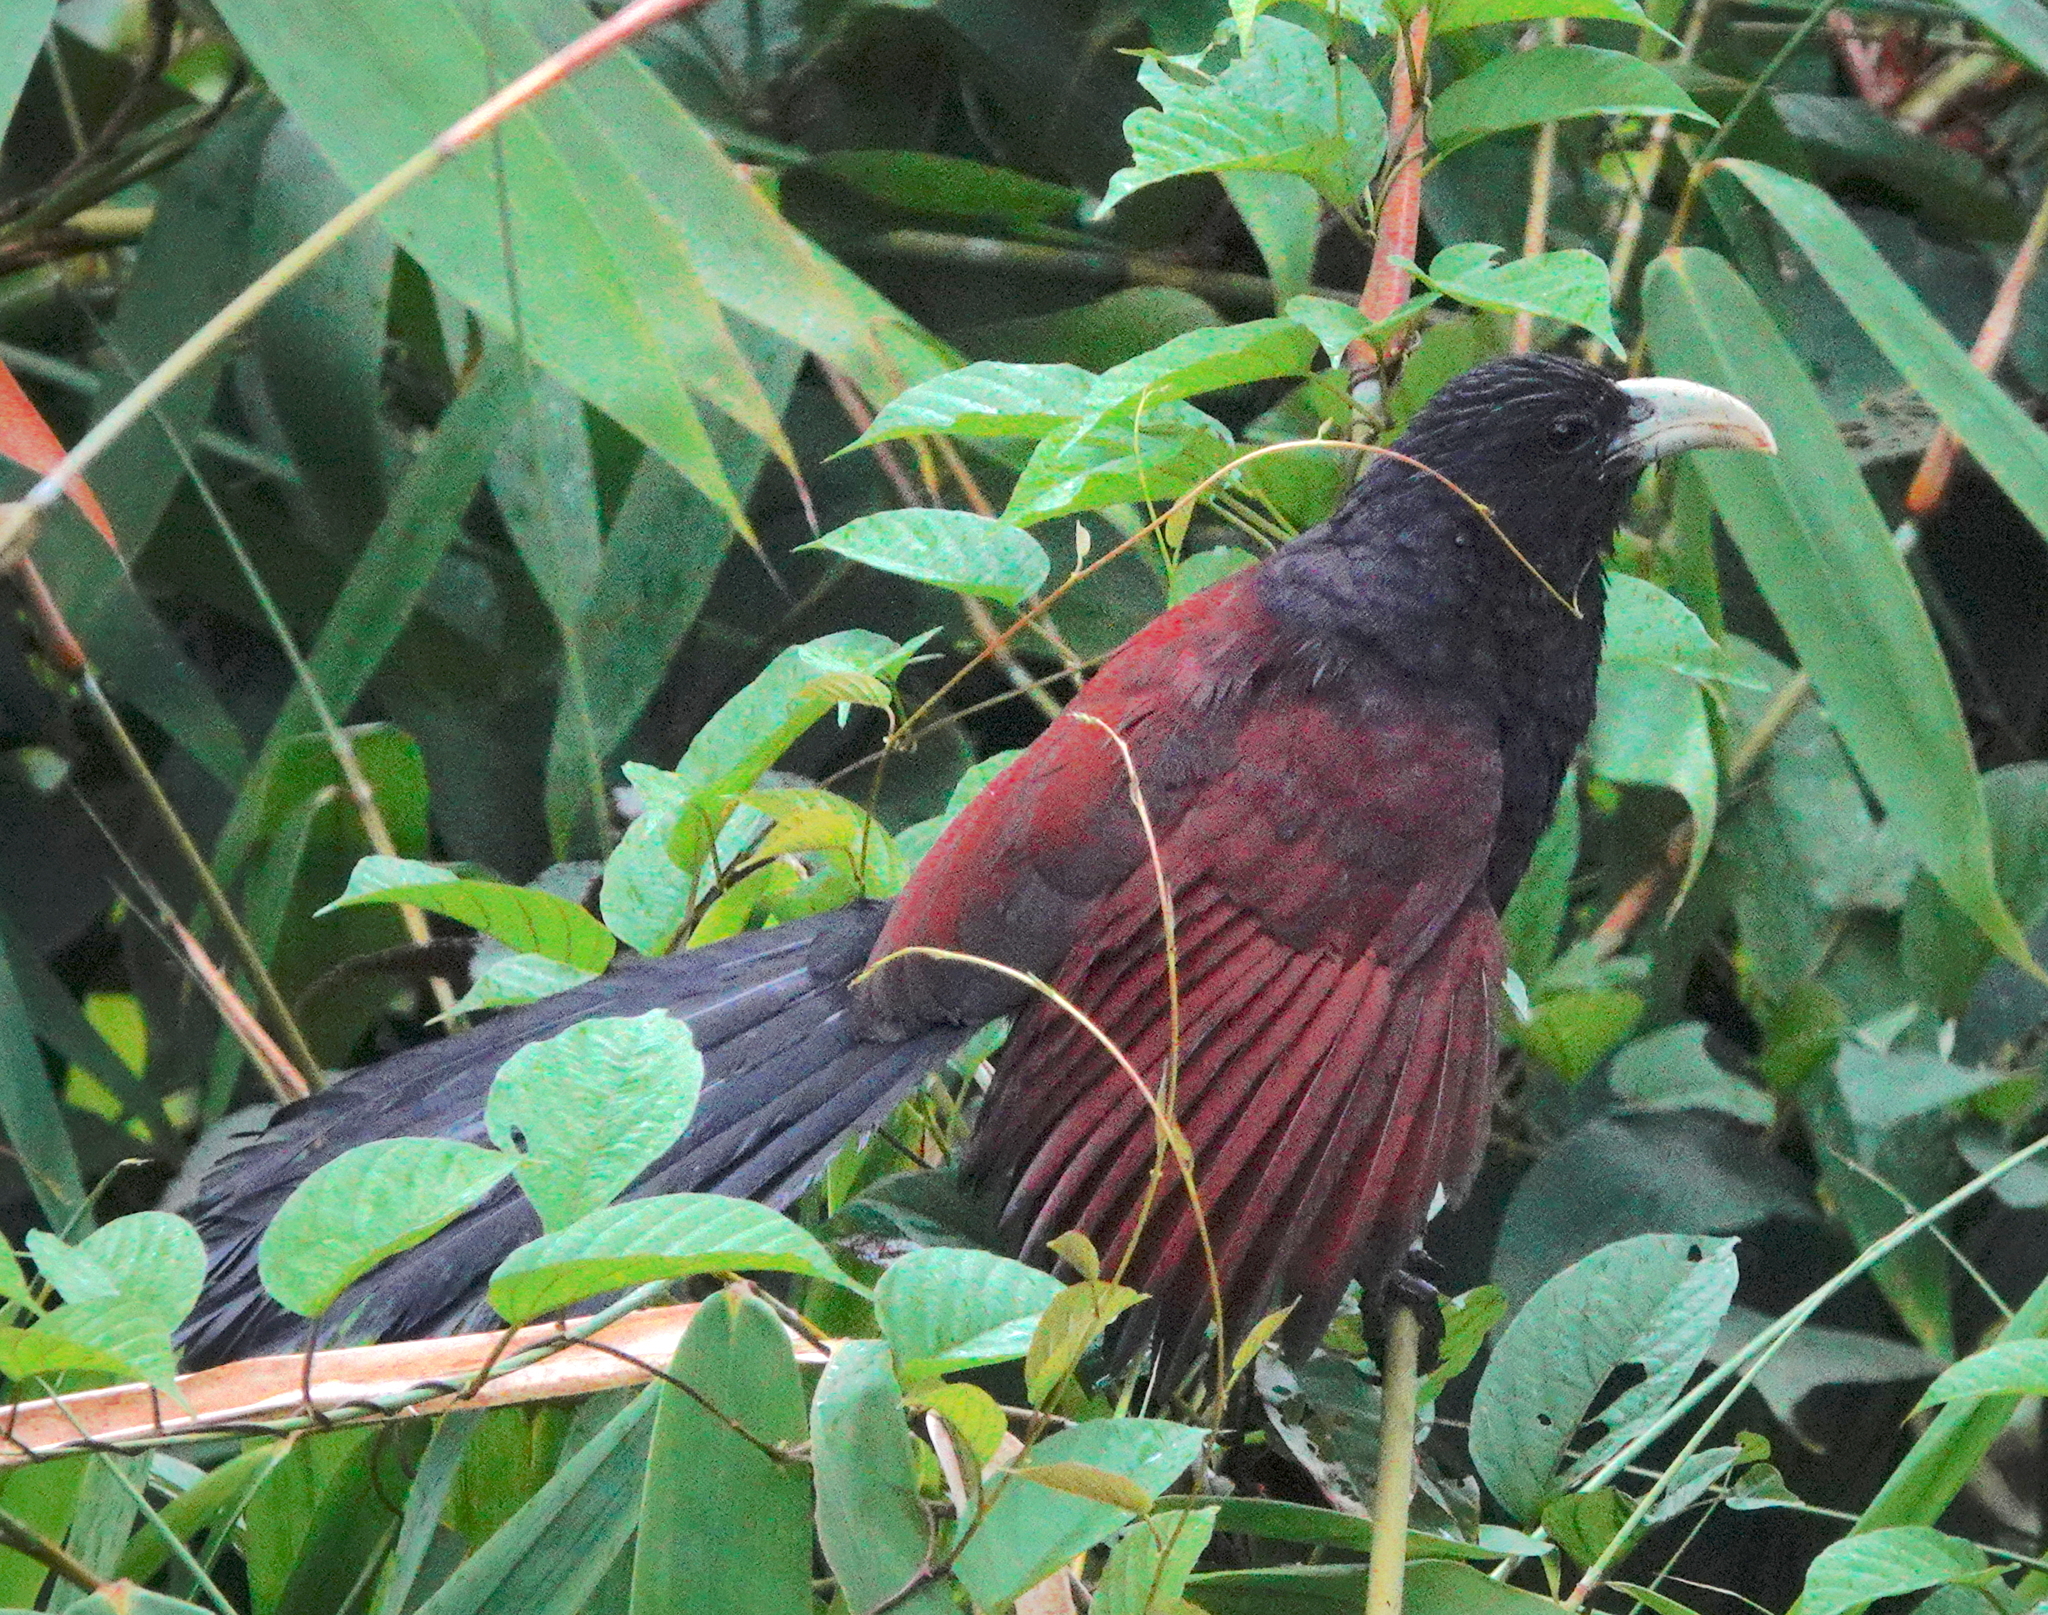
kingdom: Animalia
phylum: Chordata
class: Aves
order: Cuculiformes
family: Cuculidae
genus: Centropus
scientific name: Centropus chlororhynchos
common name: Green-billed coucal
